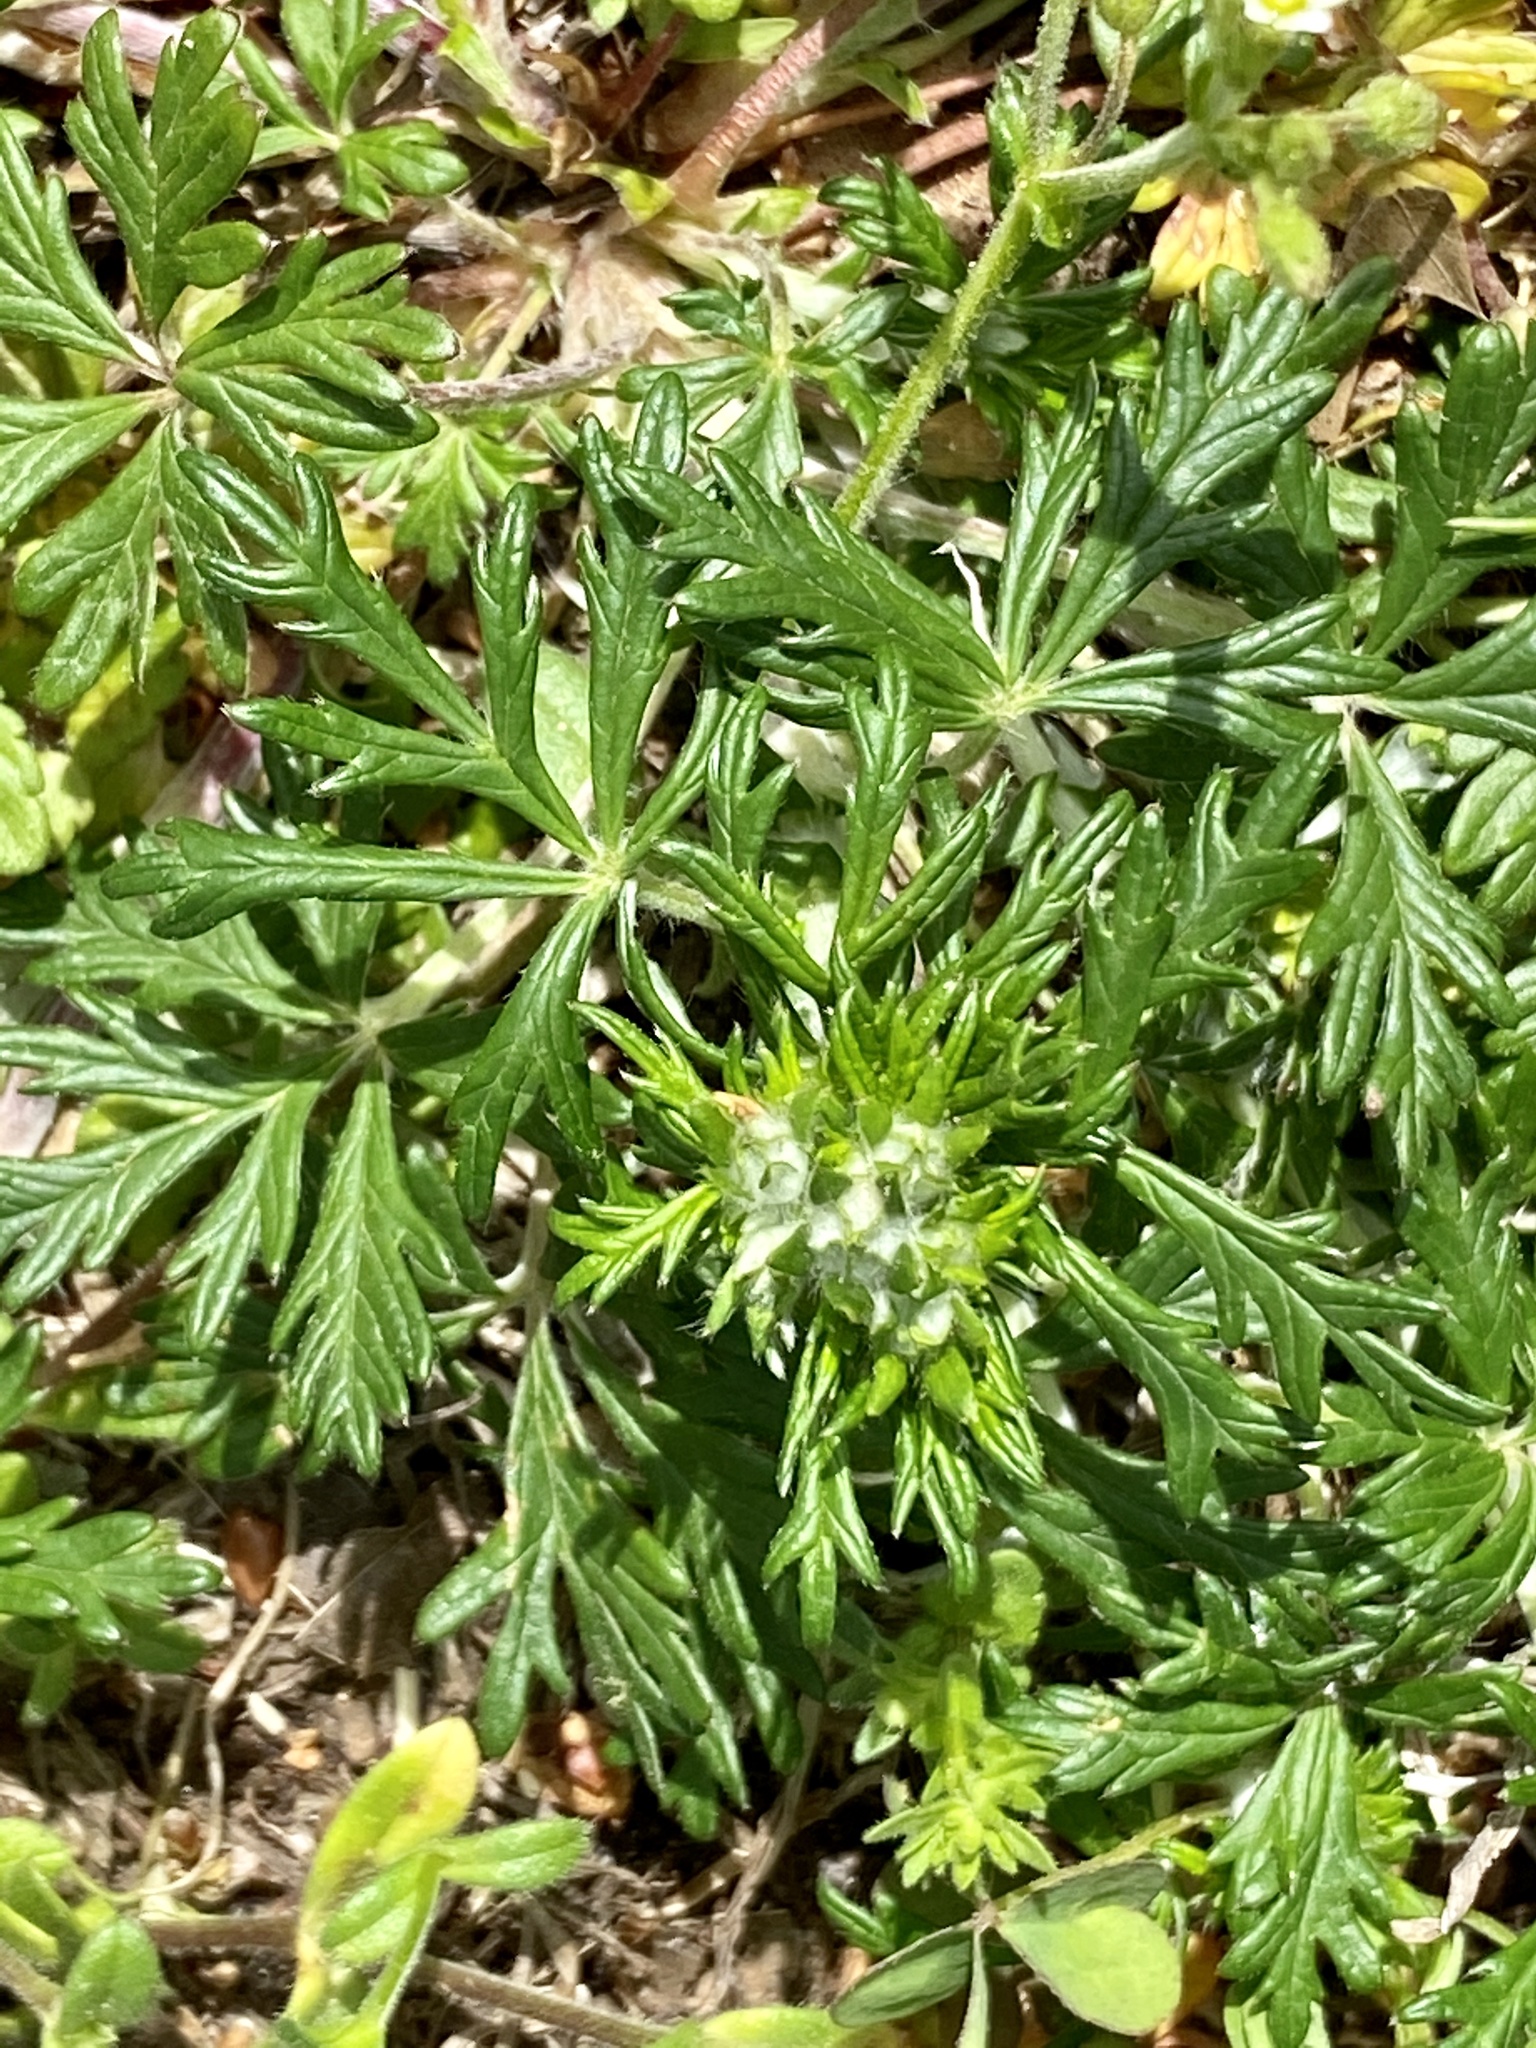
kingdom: Plantae
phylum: Tracheophyta
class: Magnoliopsida
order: Rosales
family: Rosaceae
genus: Potentilla
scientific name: Potentilla argentea
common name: Hoary cinquefoil
